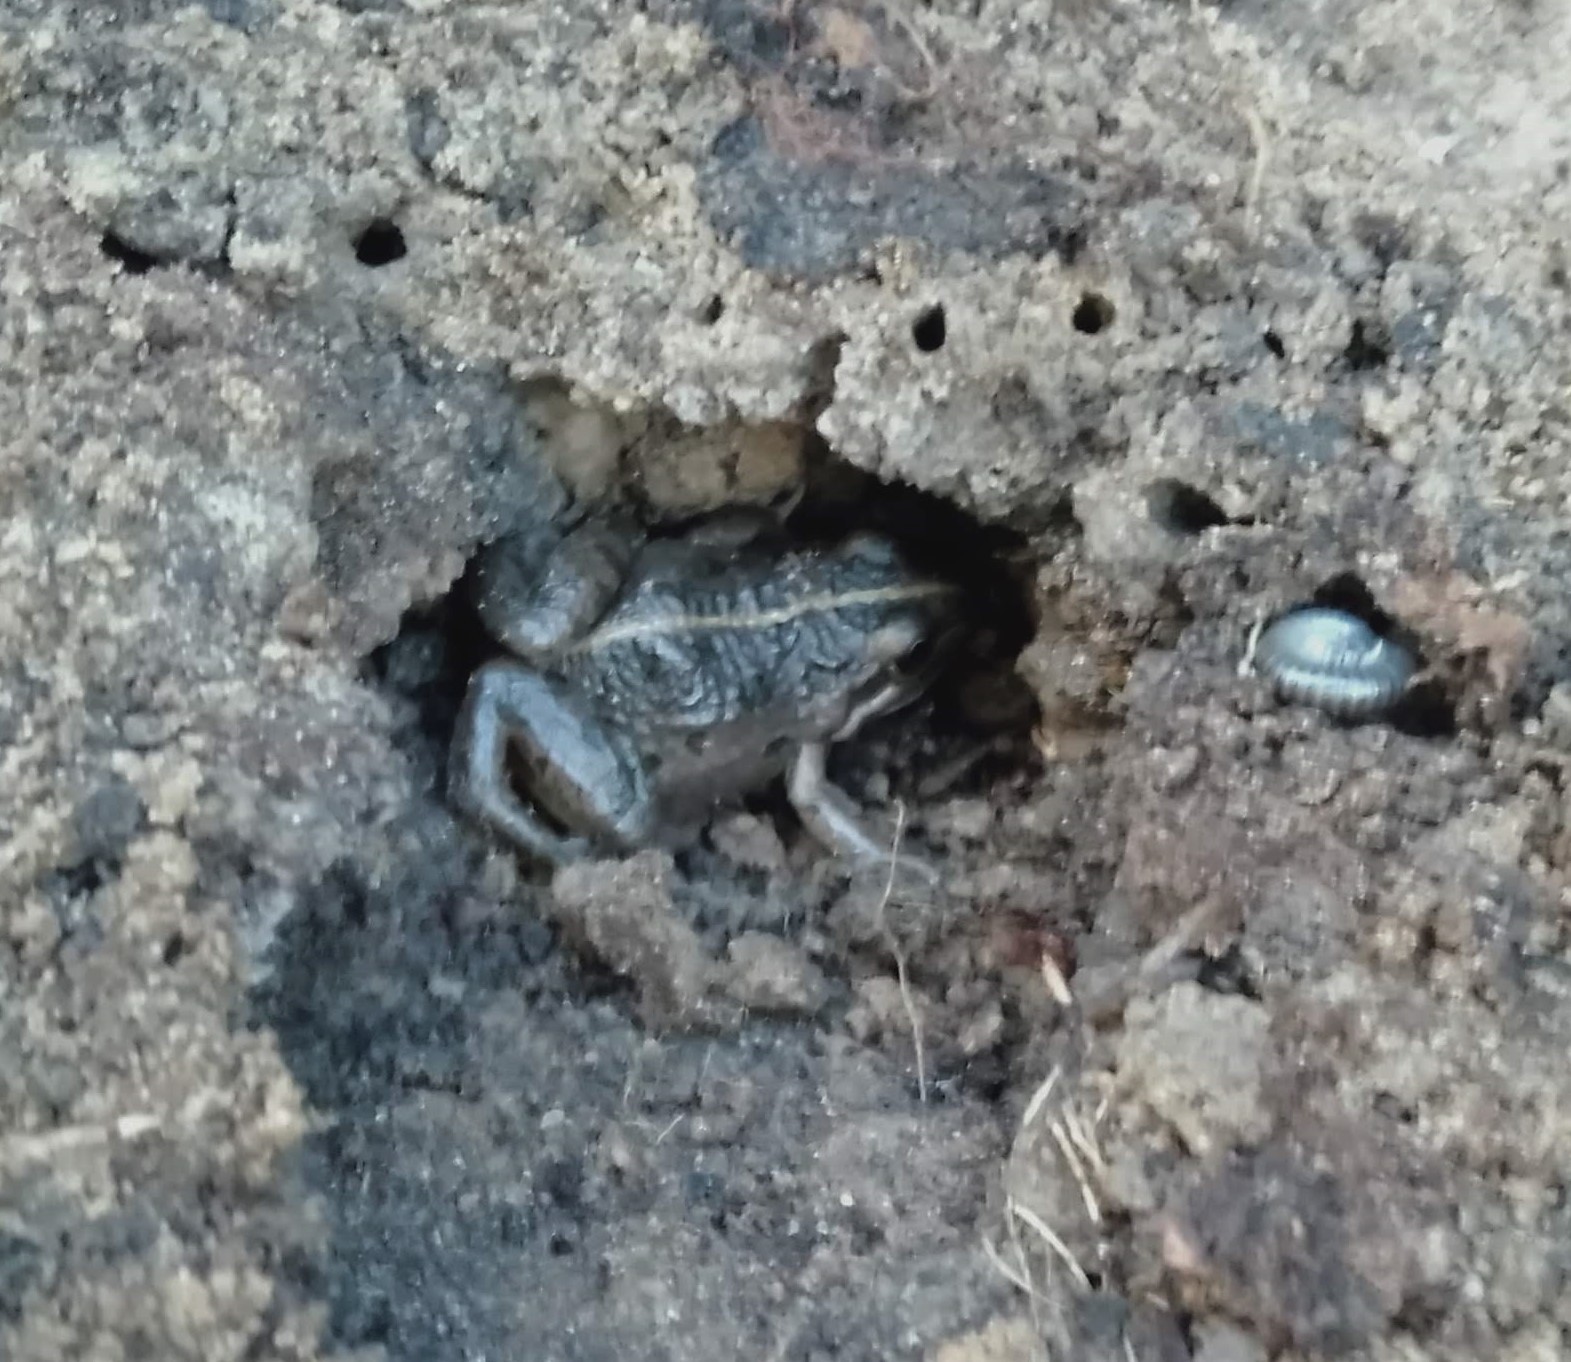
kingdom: Animalia
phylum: Chordata
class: Amphibia
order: Anura
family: Limnodynastidae
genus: Limnodynastes
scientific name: Limnodynastes tasmaniensis
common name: Spotted marsh frog
